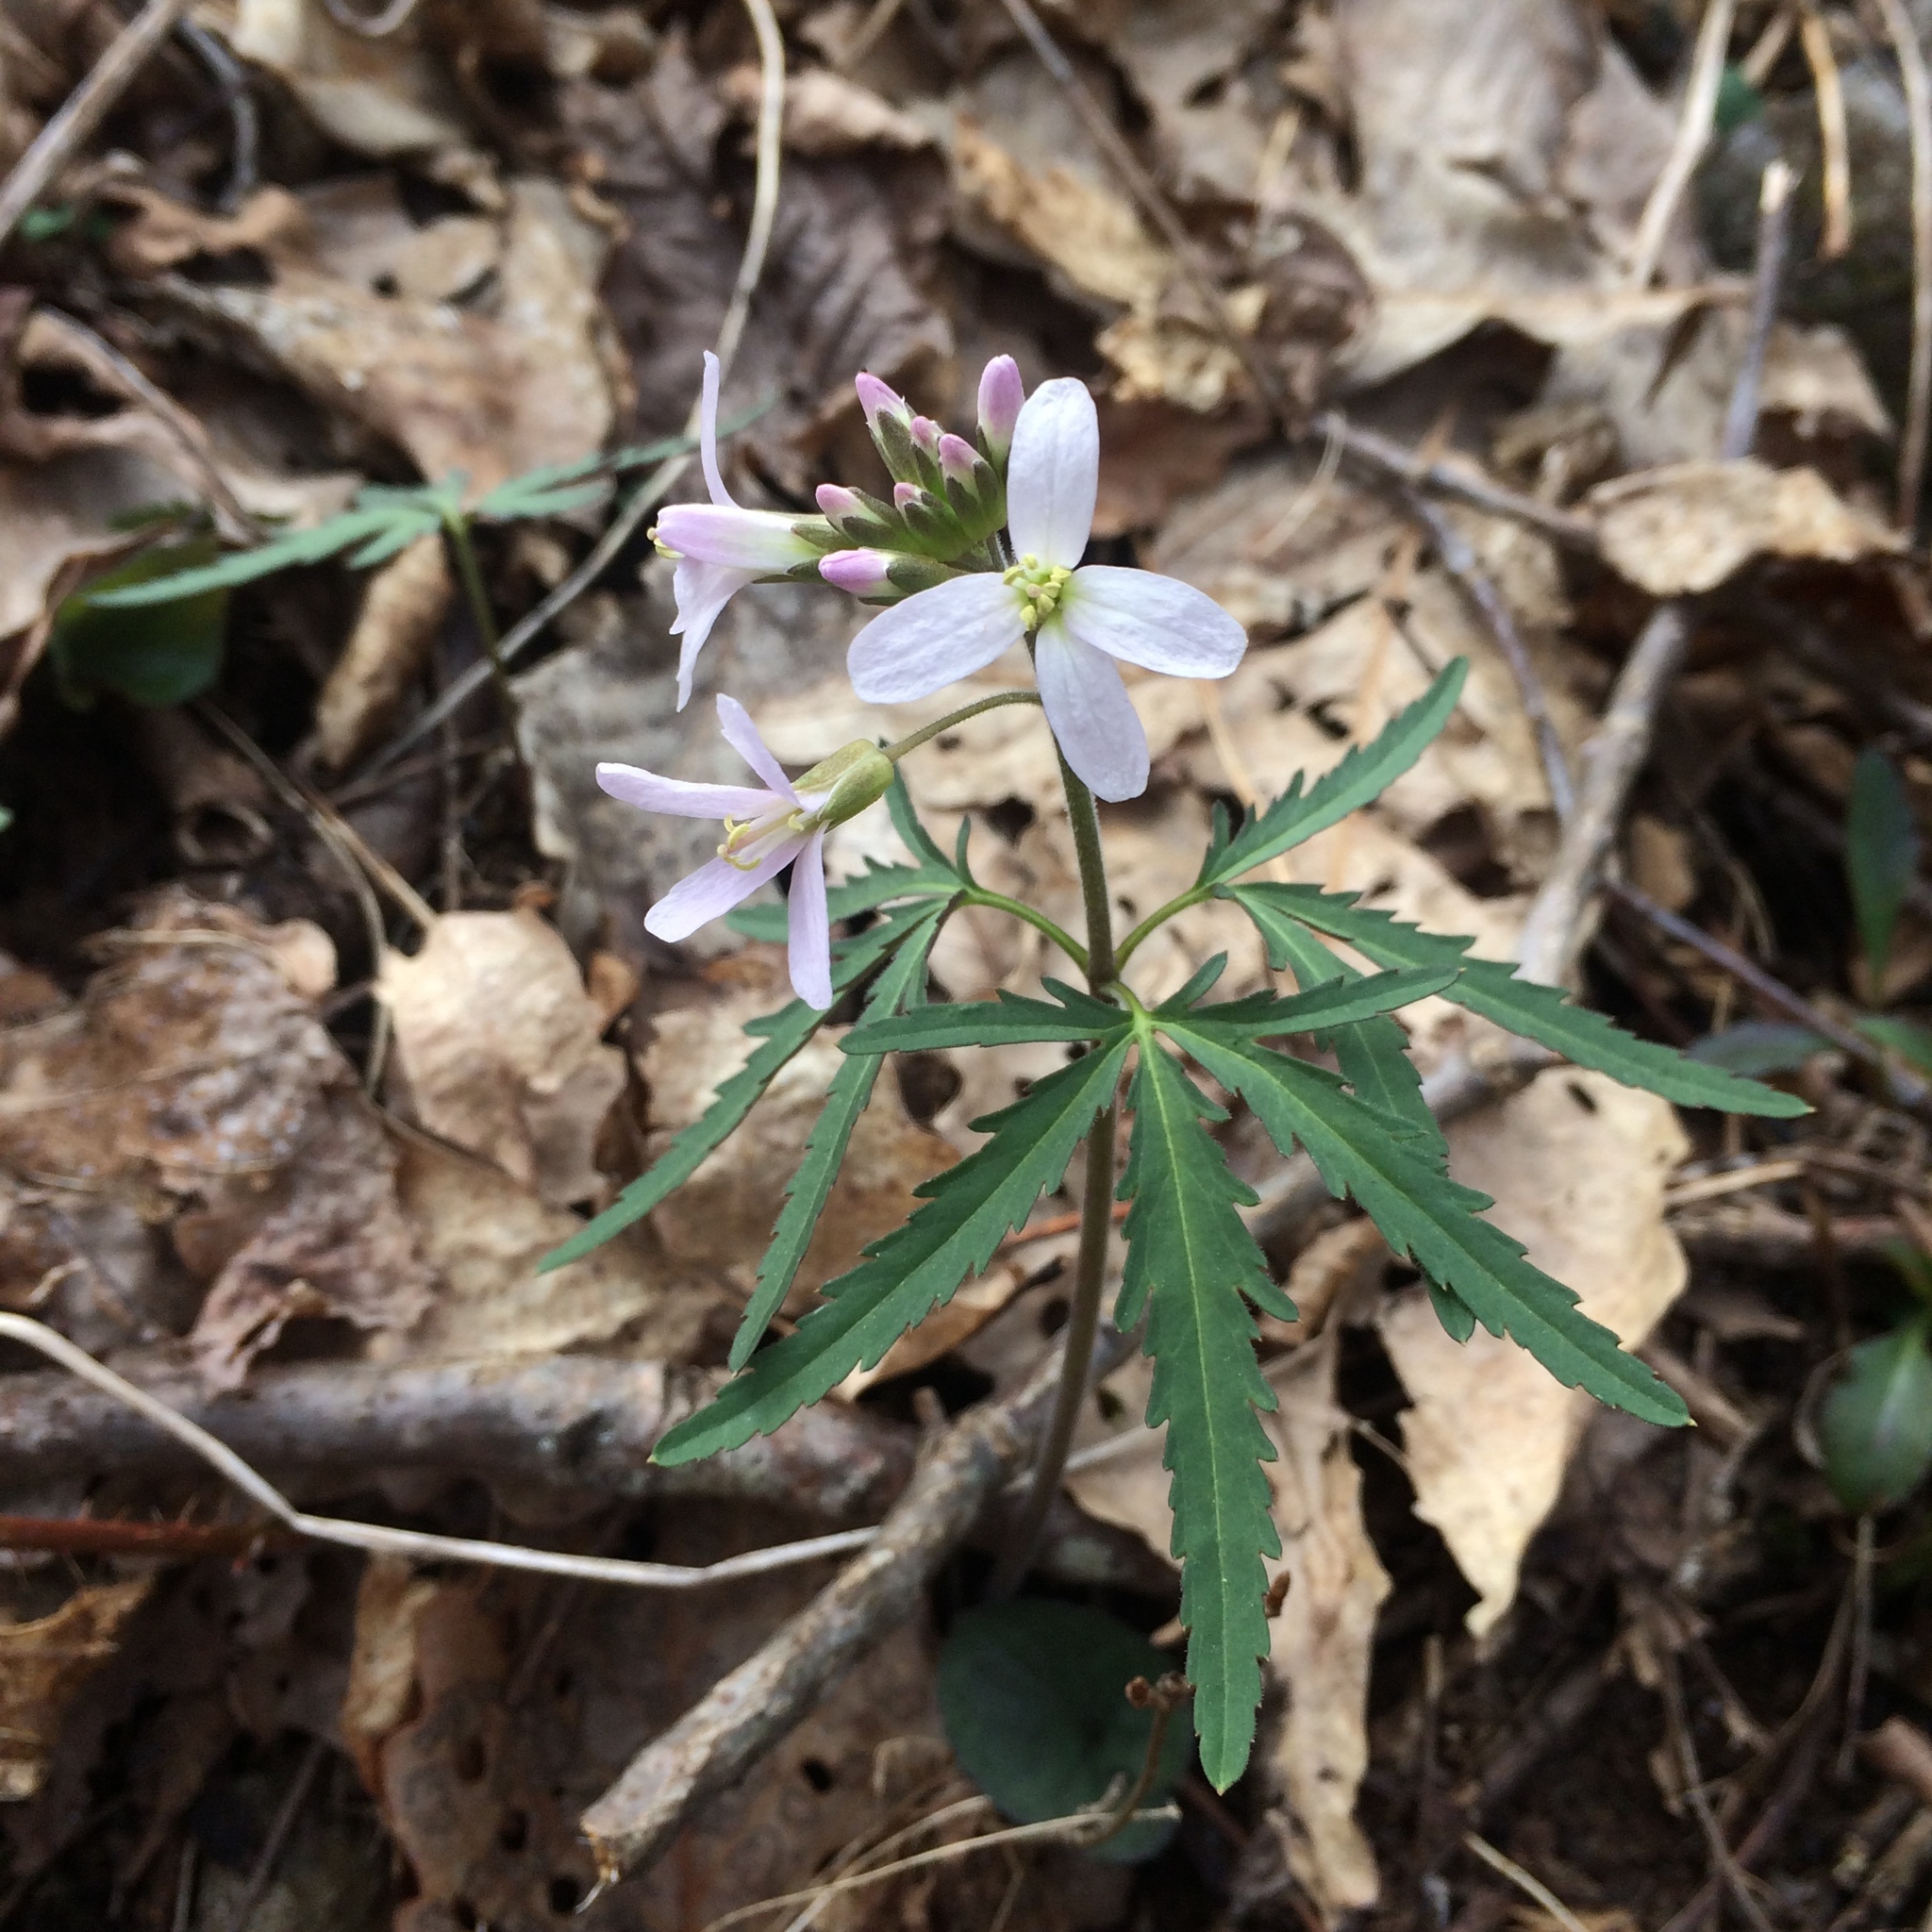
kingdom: Plantae
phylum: Tracheophyta
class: Magnoliopsida
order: Brassicales
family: Brassicaceae
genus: Cardamine
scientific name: Cardamine concatenata
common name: Cut-leaf toothcup
